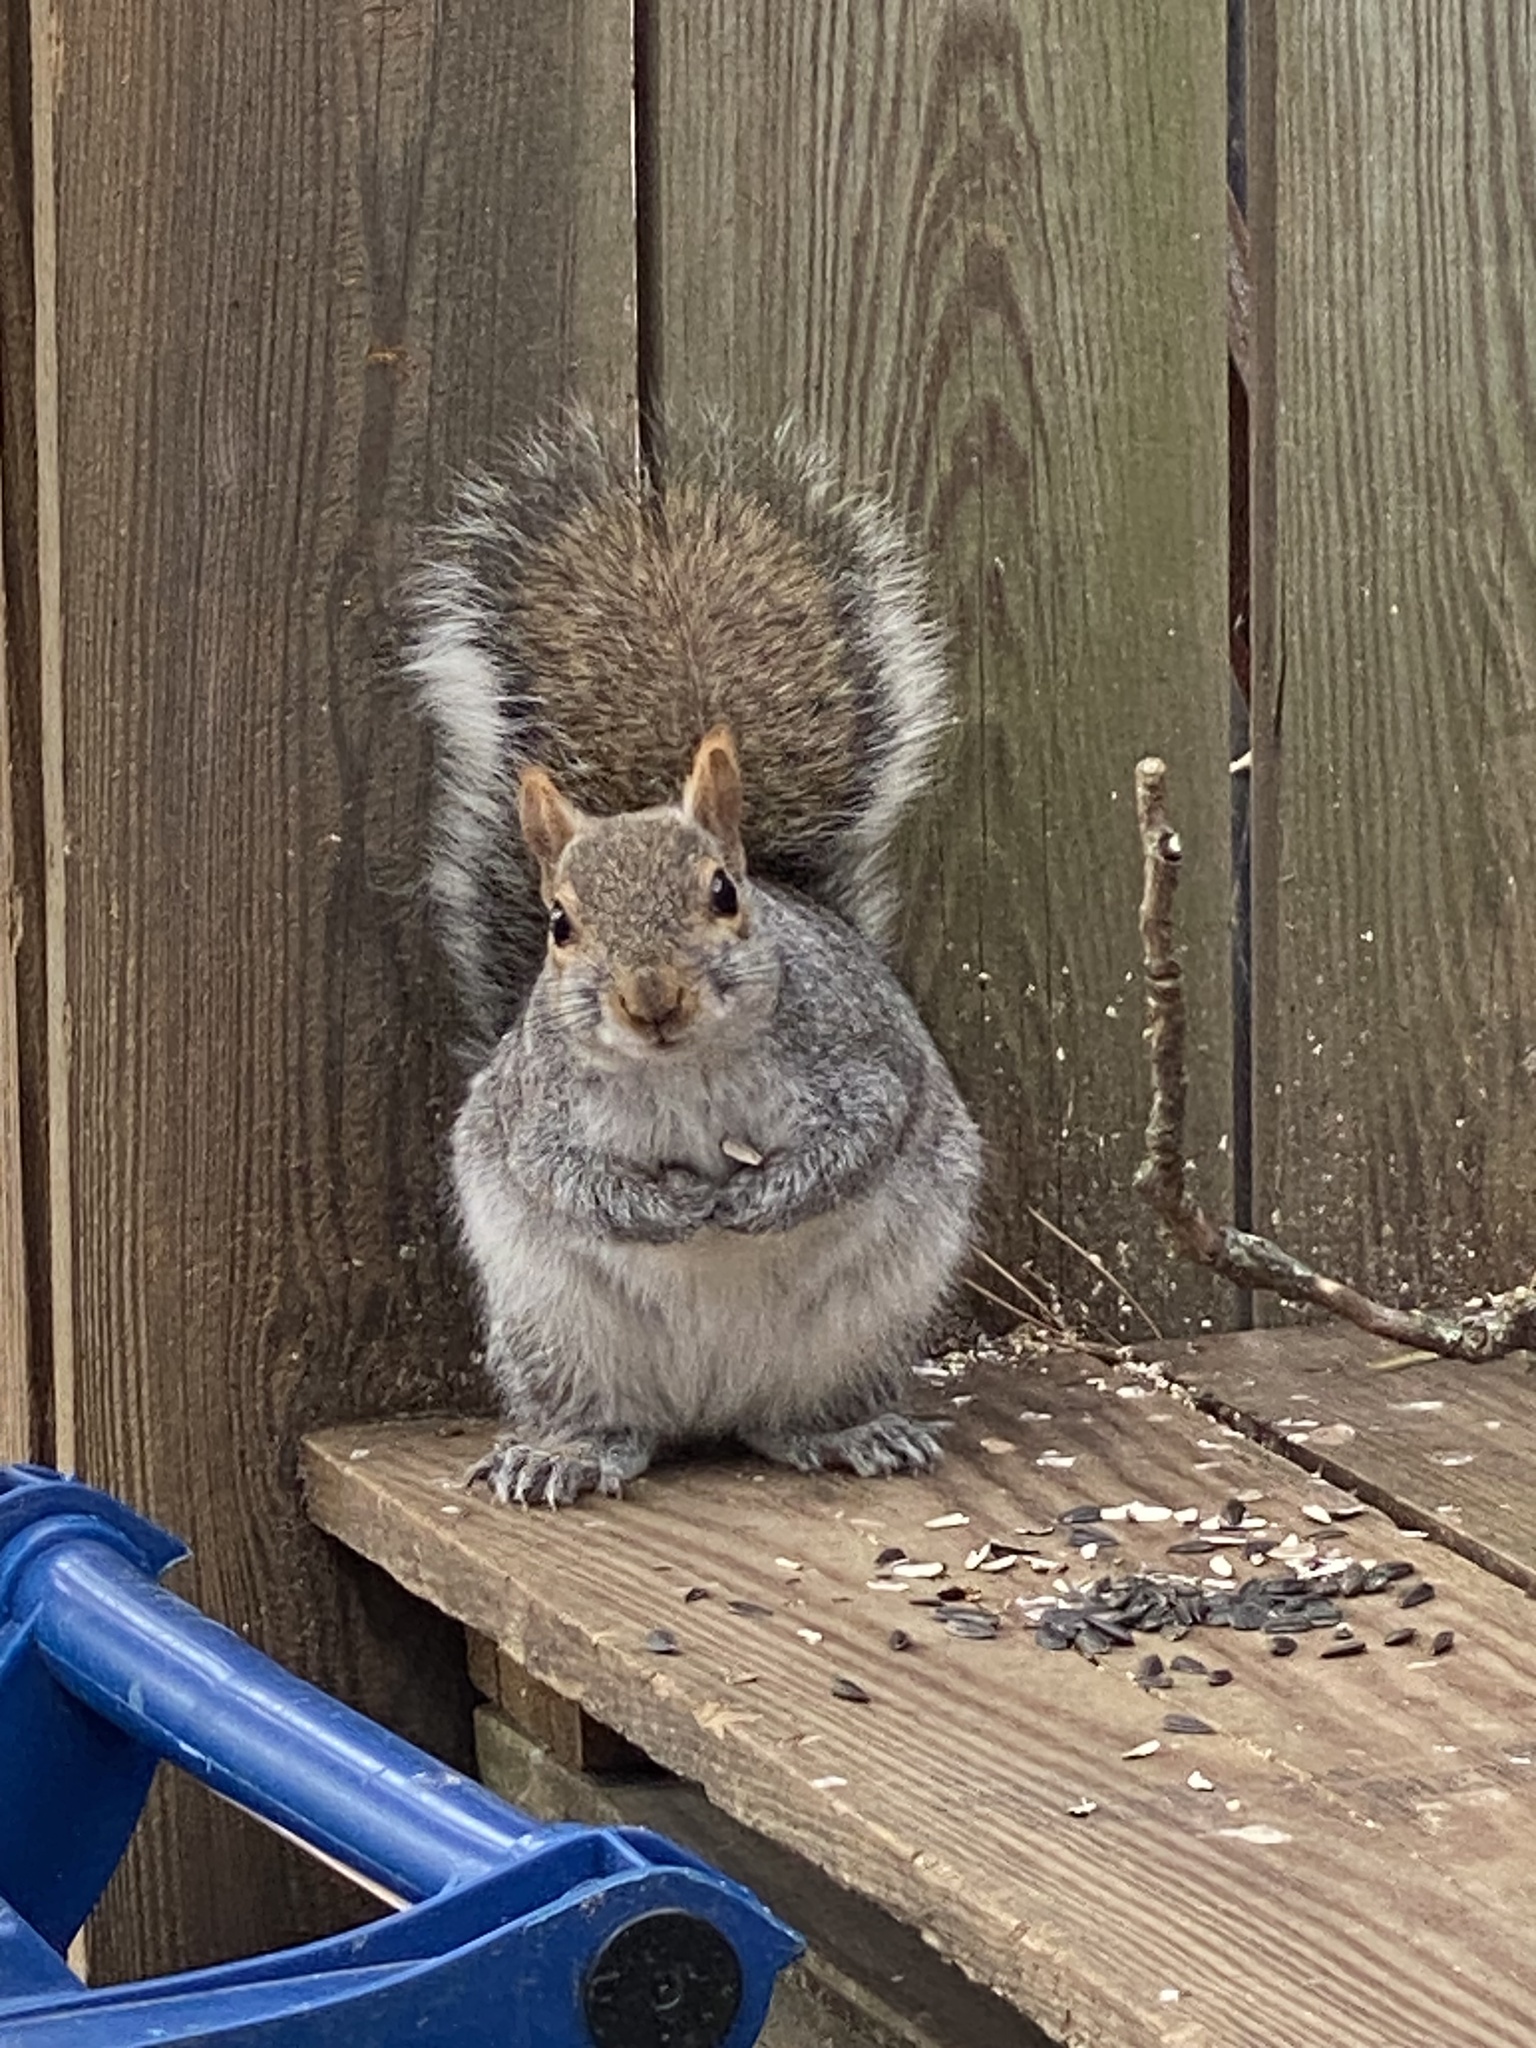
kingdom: Animalia
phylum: Chordata
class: Mammalia
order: Rodentia
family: Sciuridae
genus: Sciurus
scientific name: Sciurus carolinensis
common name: Eastern gray squirrel
